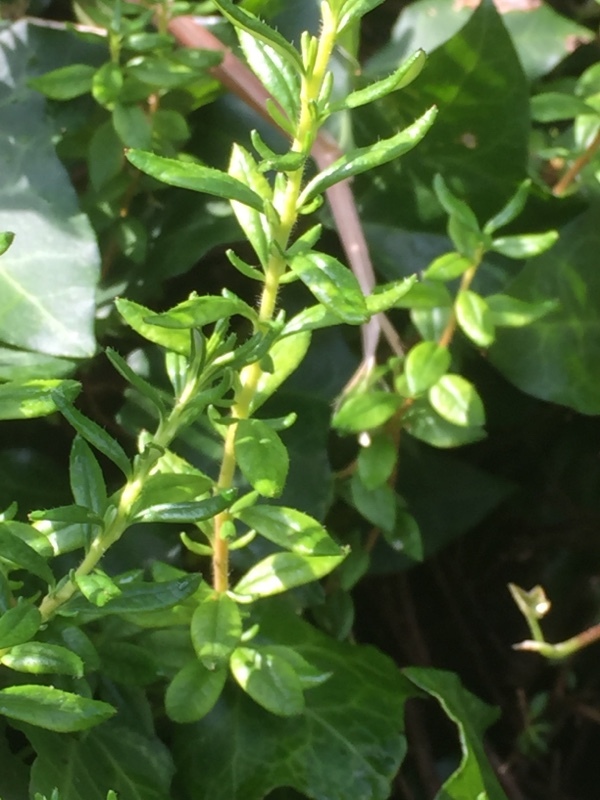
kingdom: Plantae
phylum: Tracheophyta
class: Magnoliopsida
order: Ericales
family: Ericaceae
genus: Daboecia
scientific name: Daboecia cantabrica
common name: St. dabeoc's-heath
